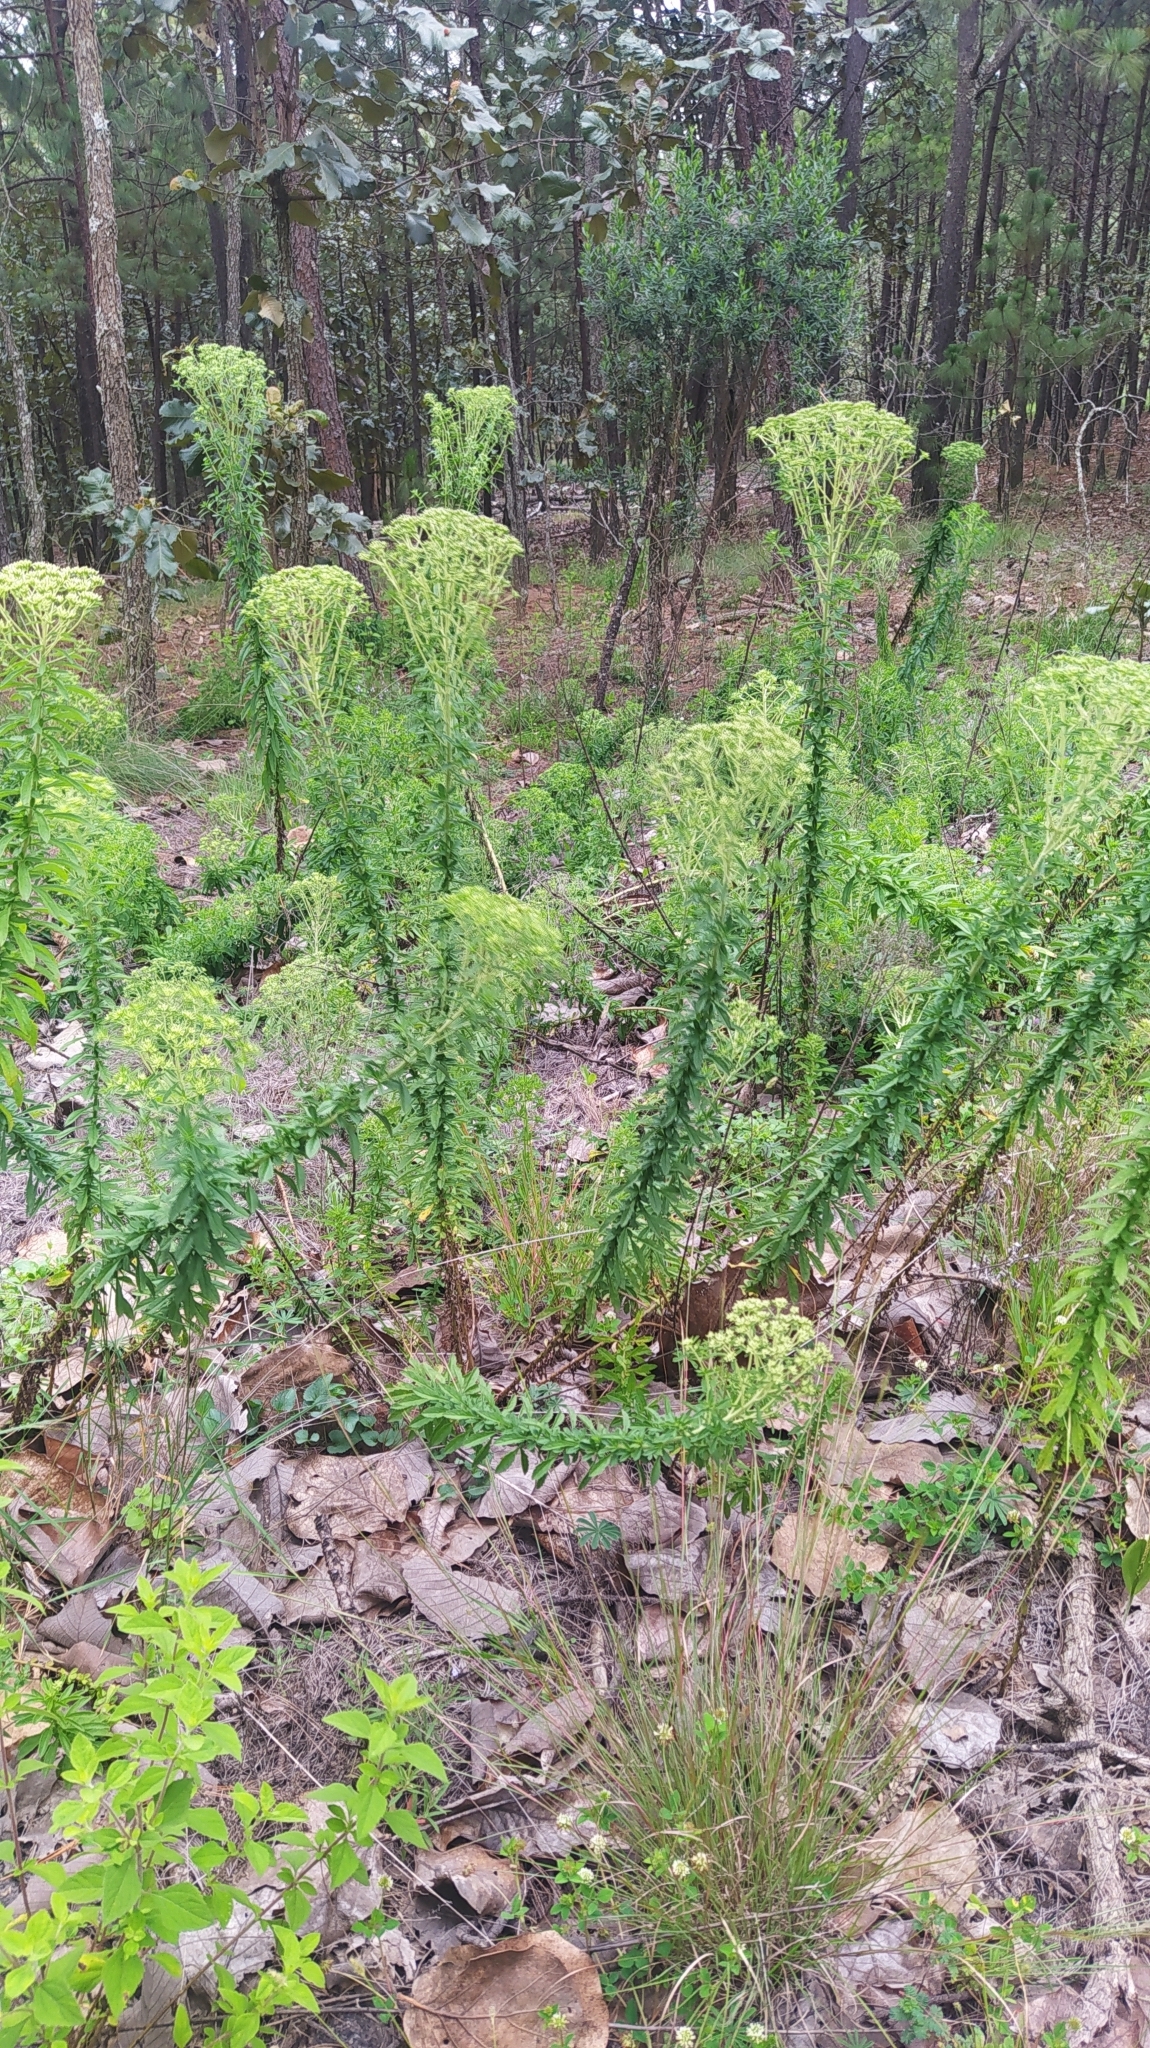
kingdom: Plantae
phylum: Tracheophyta
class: Magnoliopsida
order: Asterales
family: Asteraceae
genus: Stevia
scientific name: Stevia serrata
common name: Sawtooth candyleaf
